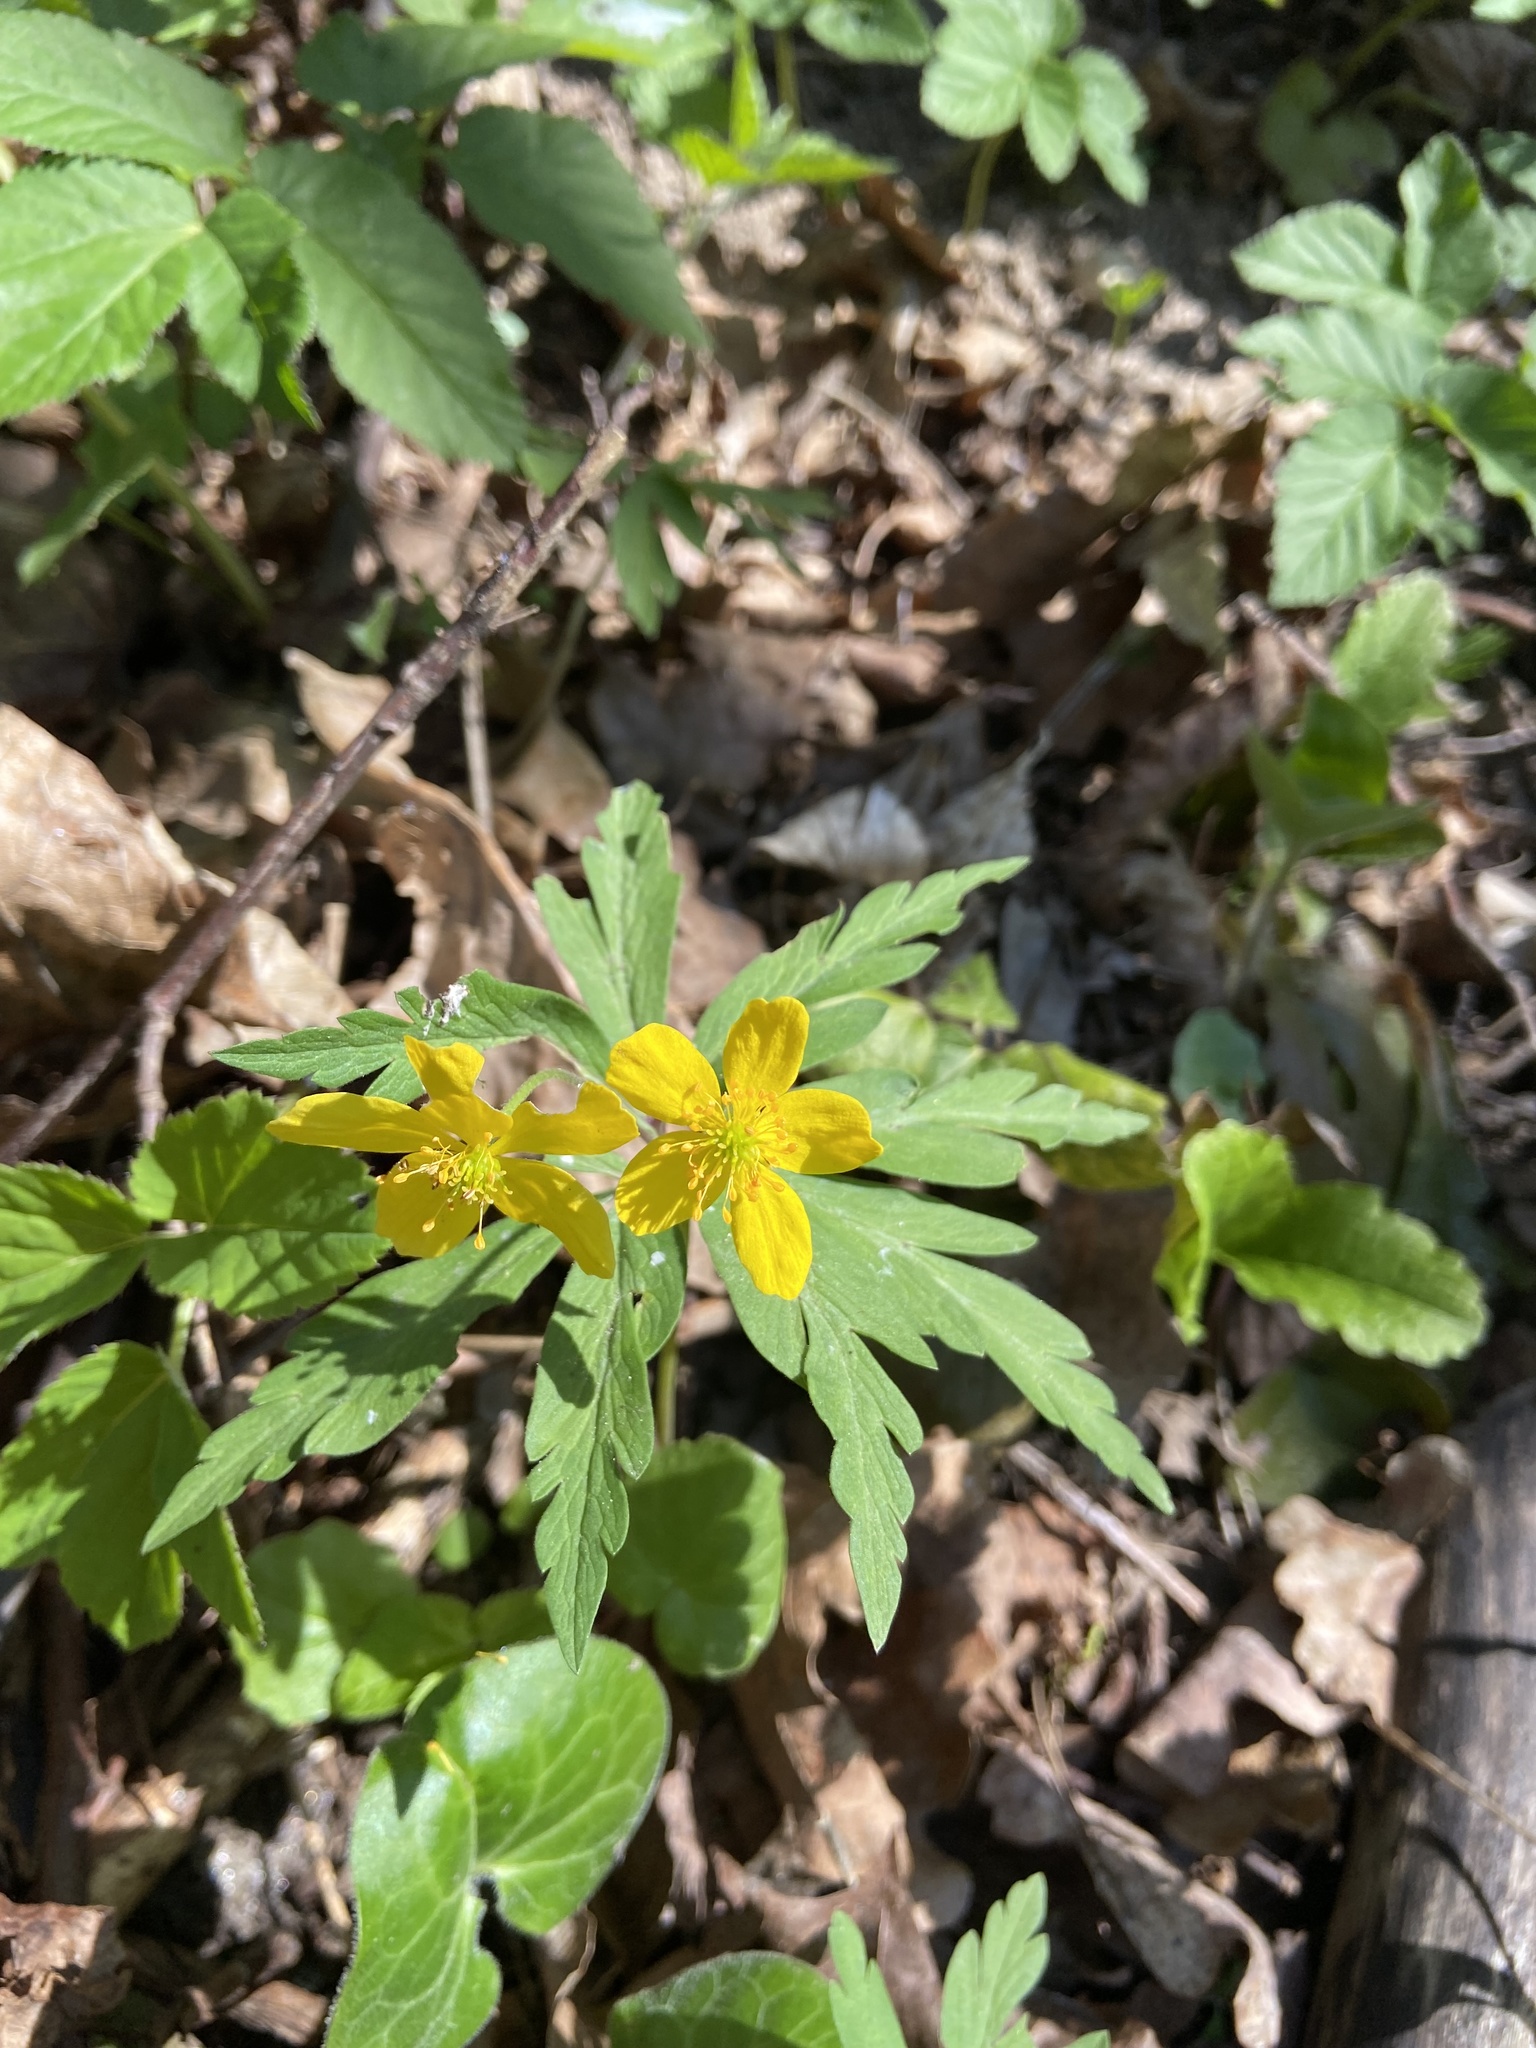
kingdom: Plantae
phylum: Tracheophyta
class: Magnoliopsida
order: Ranunculales
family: Ranunculaceae
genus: Anemone
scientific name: Anemone ranunculoides
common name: Yellow anemone
